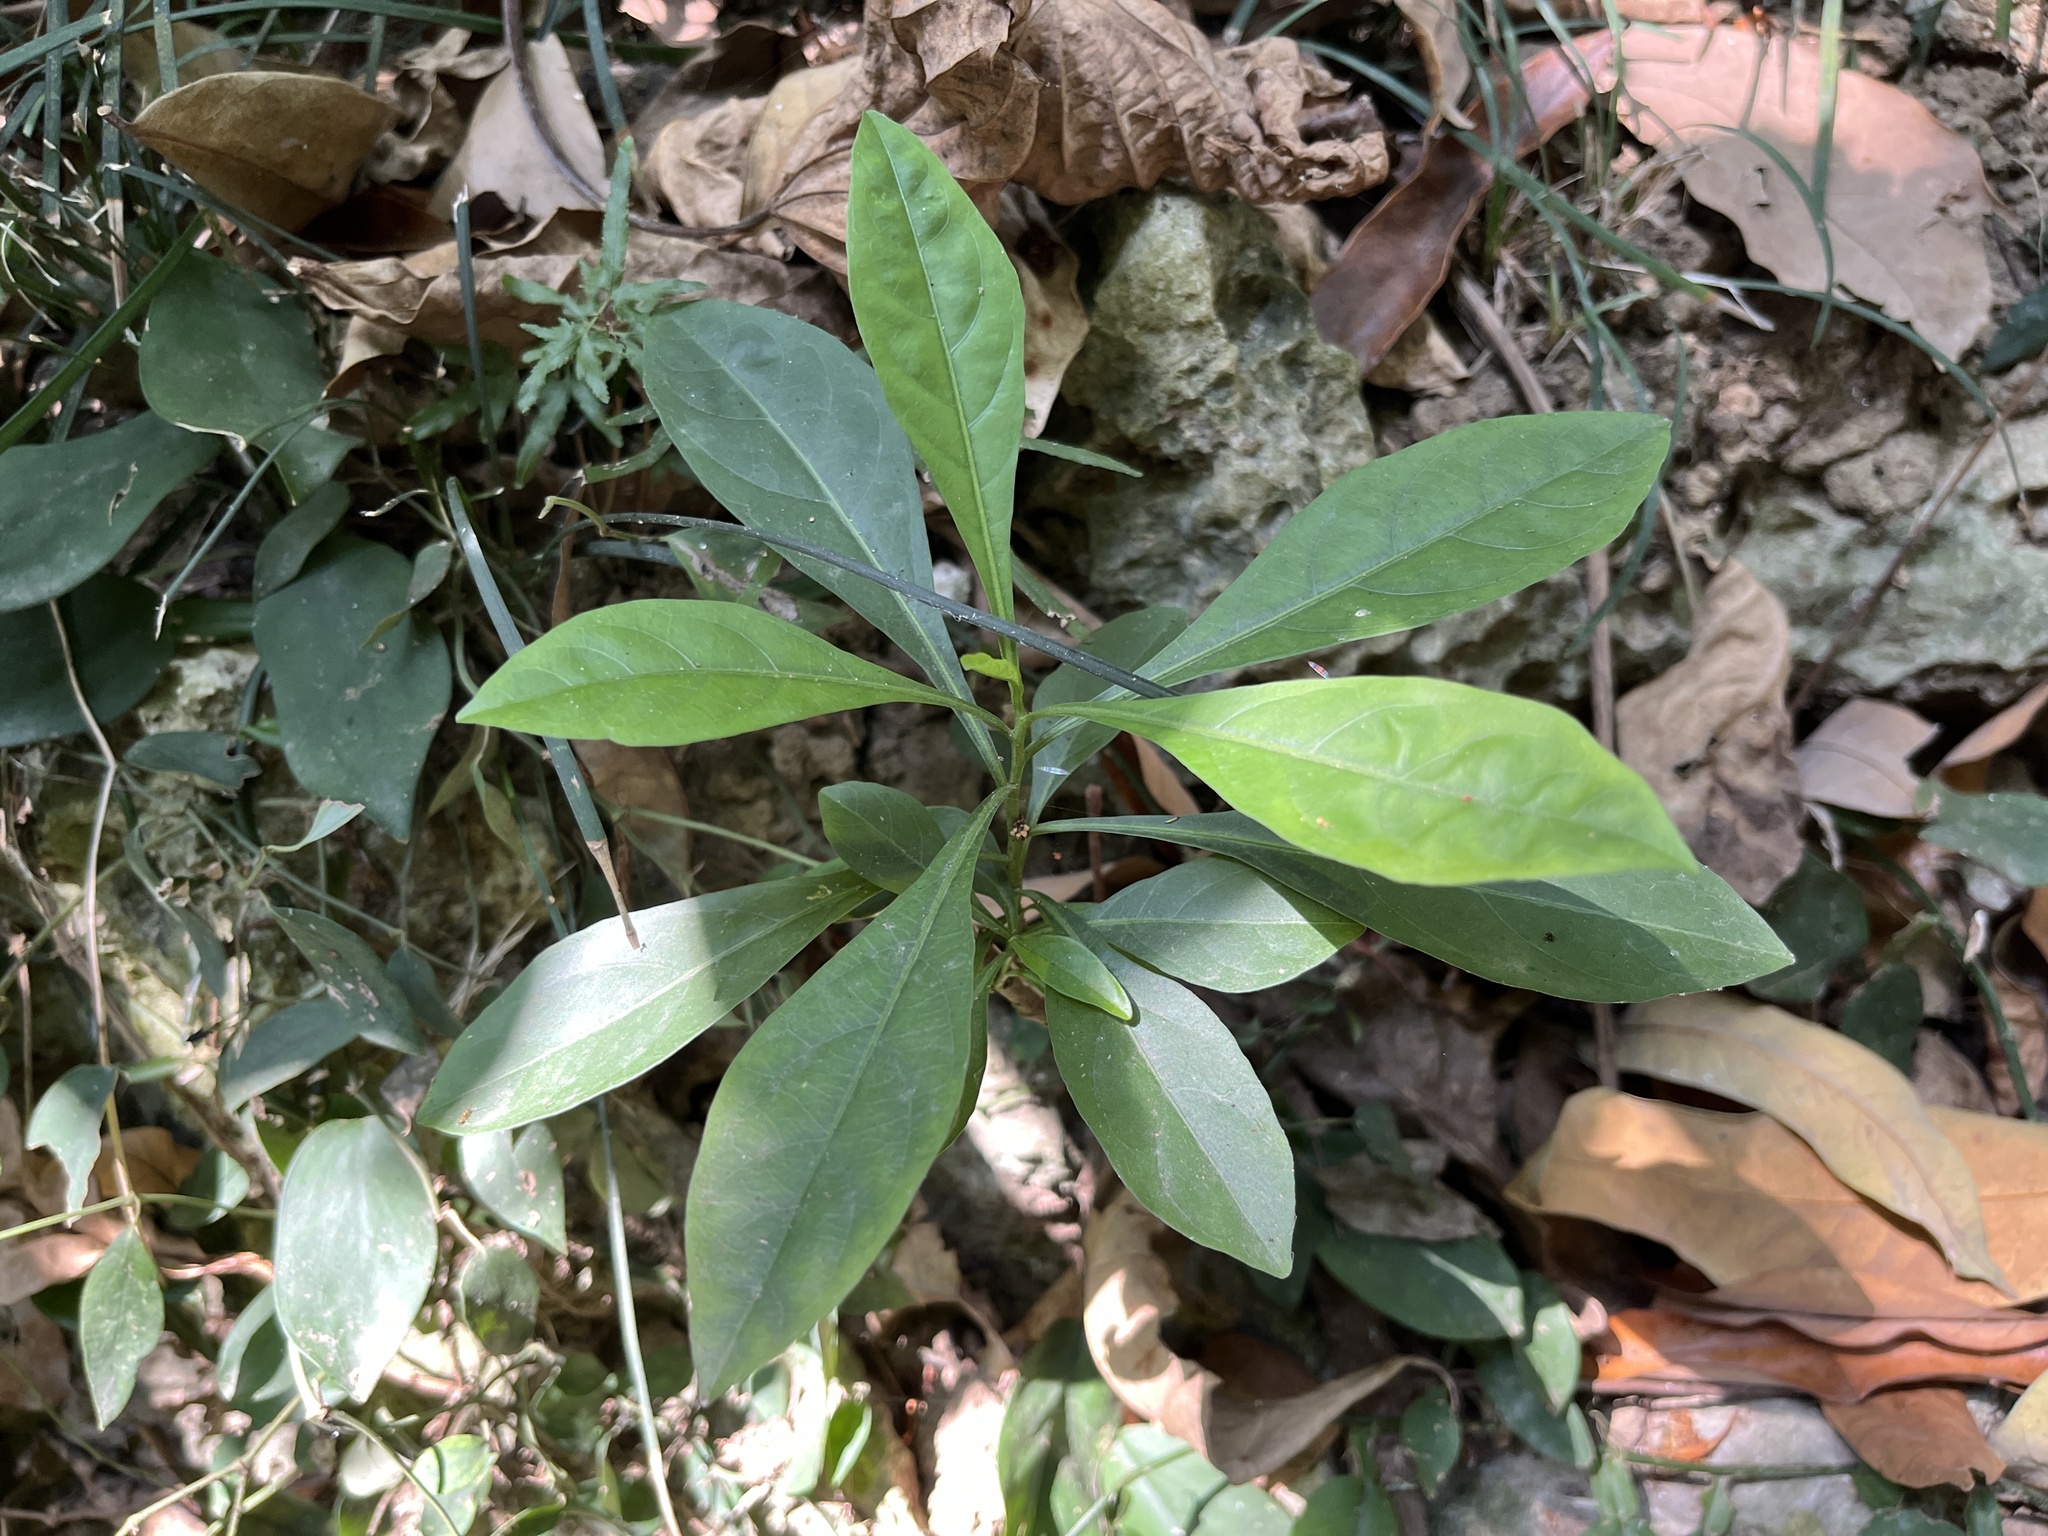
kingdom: Plantae
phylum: Tracheophyta
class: Magnoliopsida
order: Solanales
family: Solanaceae
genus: Solanum
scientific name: Solanum diphyllum
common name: Twoleaf nightshade
